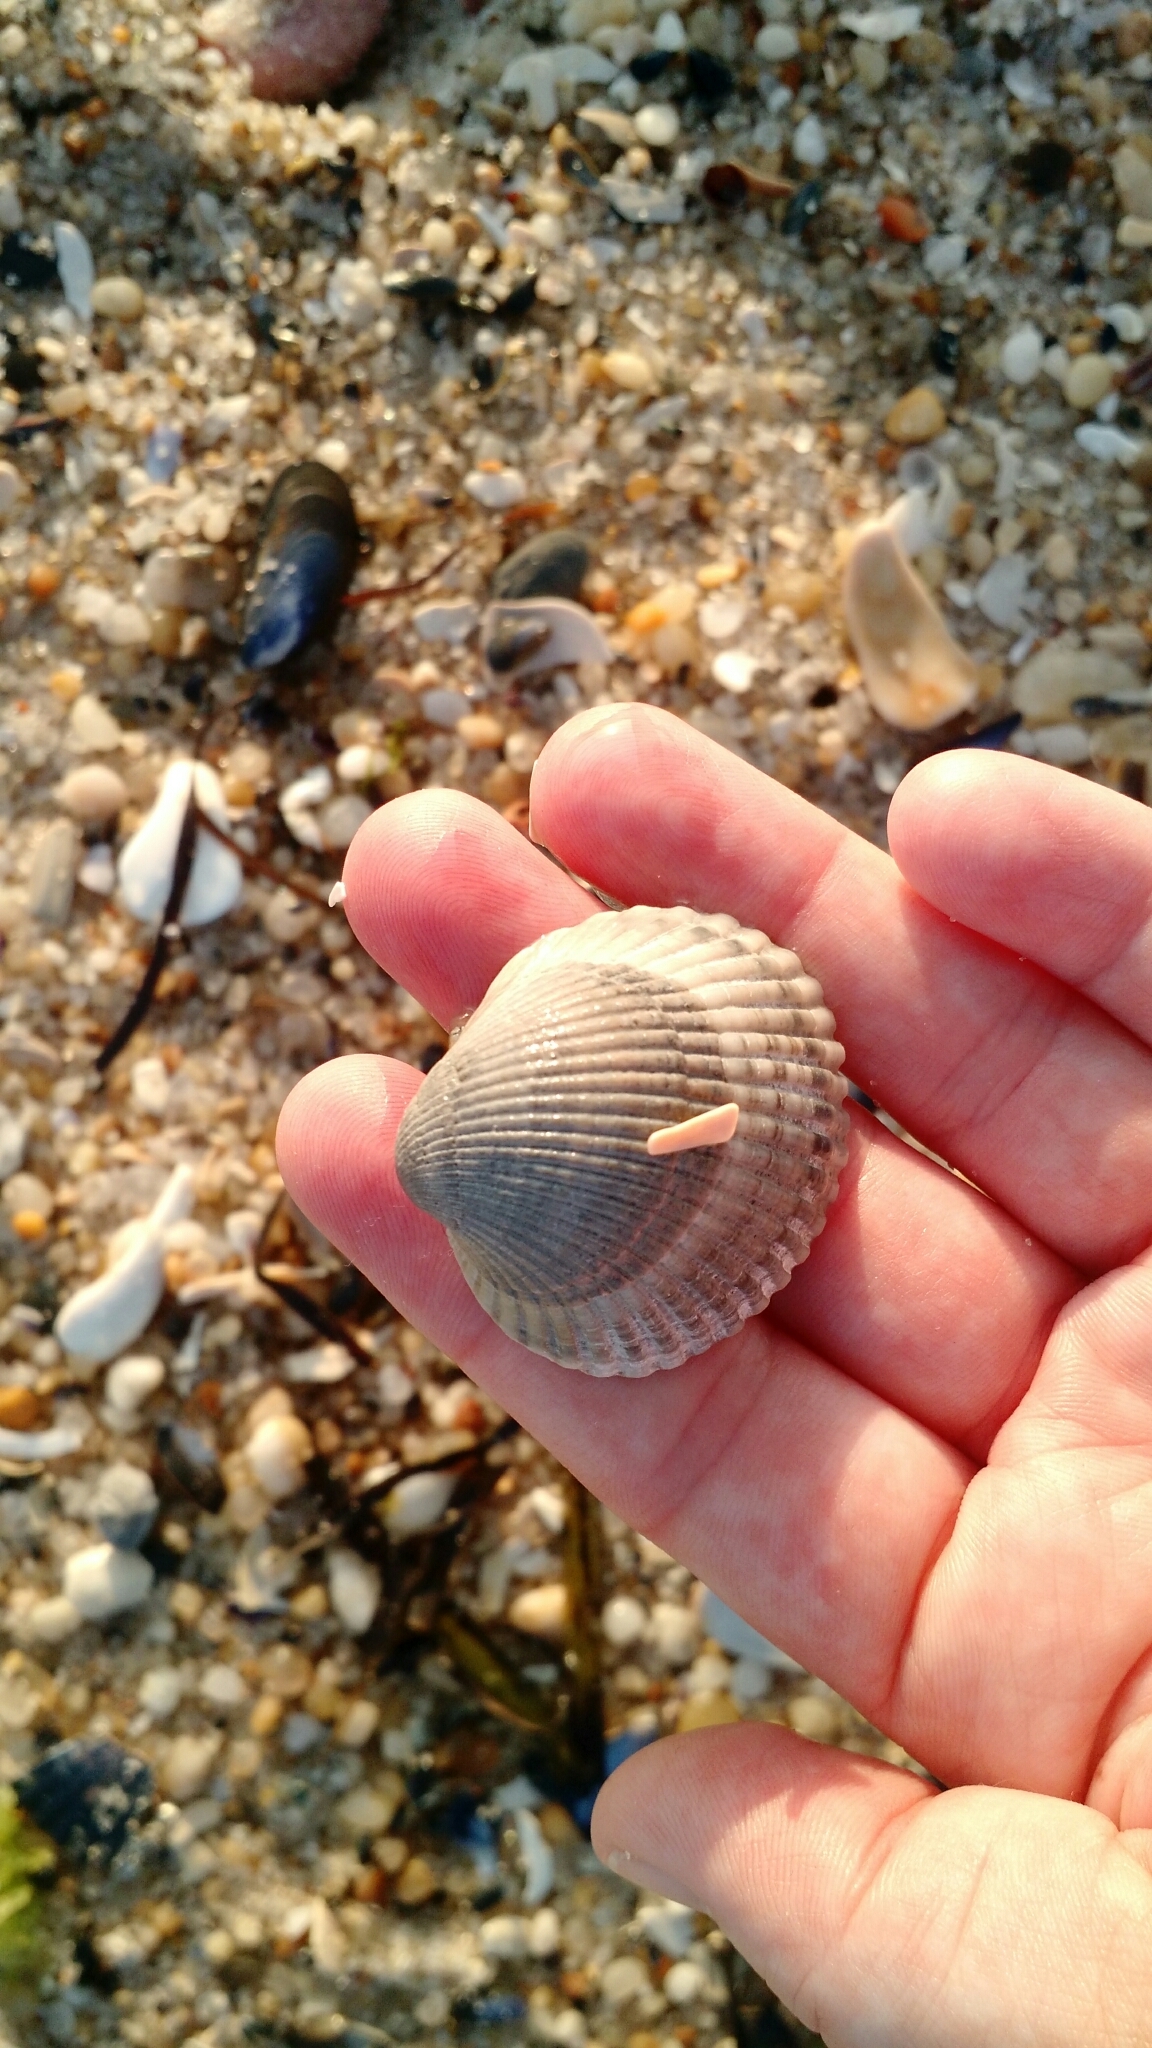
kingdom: Animalia
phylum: Mollusca
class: Bivalvia
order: Arcida
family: Arcidae
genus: Lunarca
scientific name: Lunarca ovalis
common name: Blood ark
